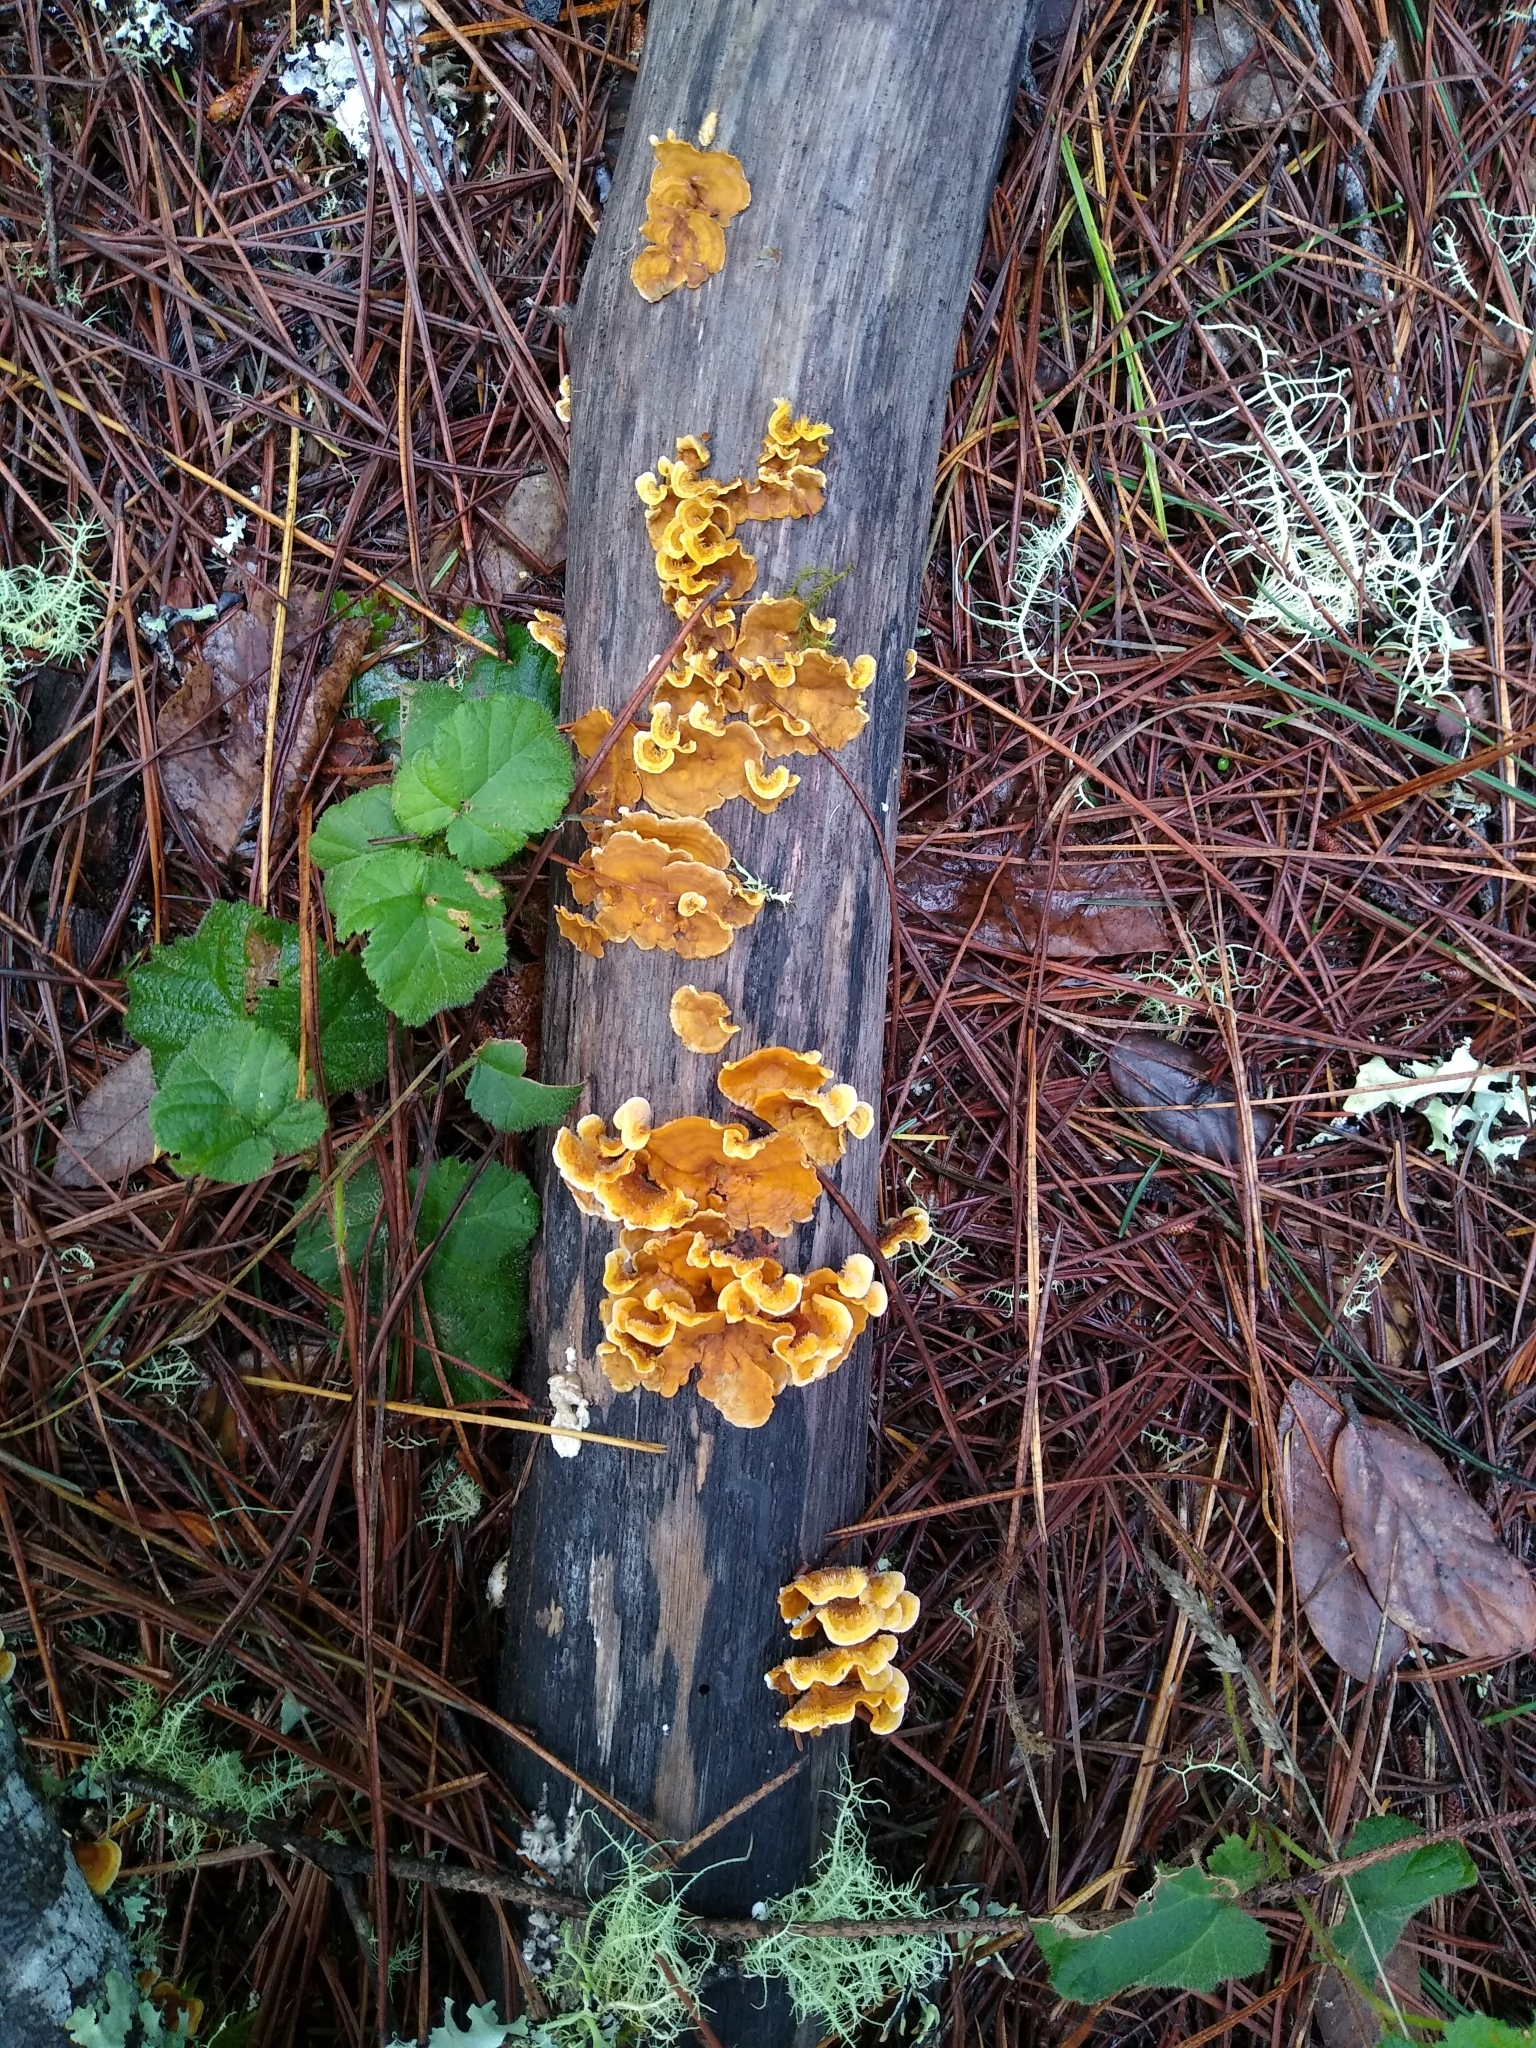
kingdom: Fungi
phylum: Basidiomycota
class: Agaricomycetes
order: Russulales
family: Stereaceae
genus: Stereum
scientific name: Stereum hirsutum
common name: Hairy curtain crust
